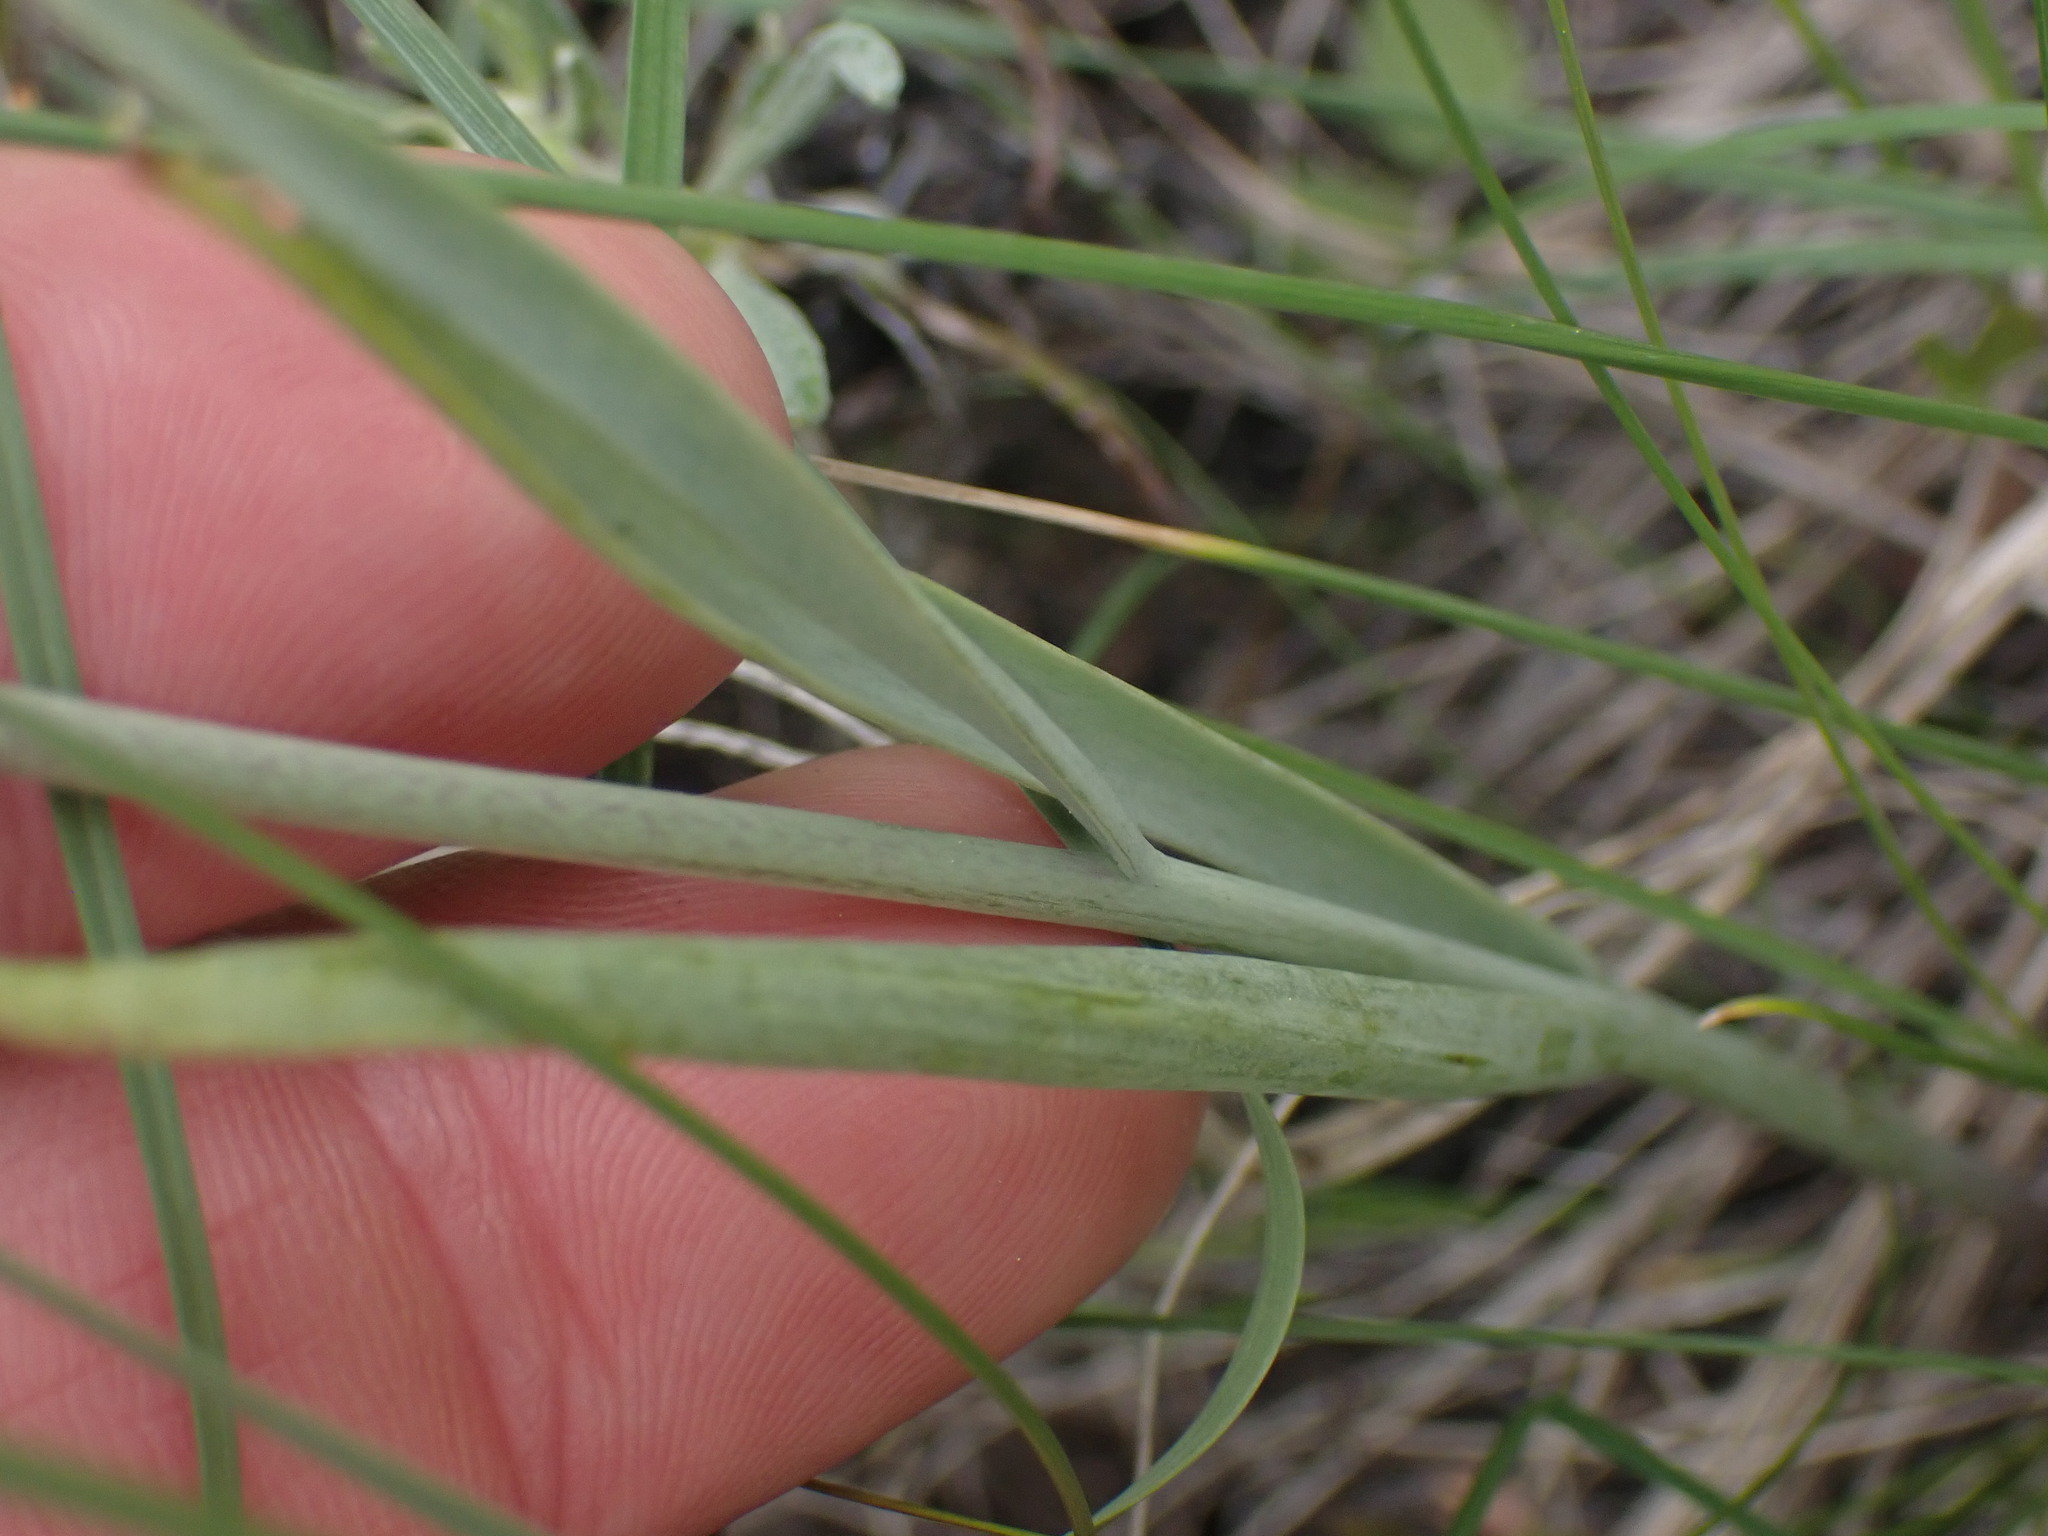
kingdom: Plantae
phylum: Tracheophyta
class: Liliopsida
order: Liliales
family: Liliaceae
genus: Fritillaria
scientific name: Fritillaria pudica
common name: Yellow fritillary
